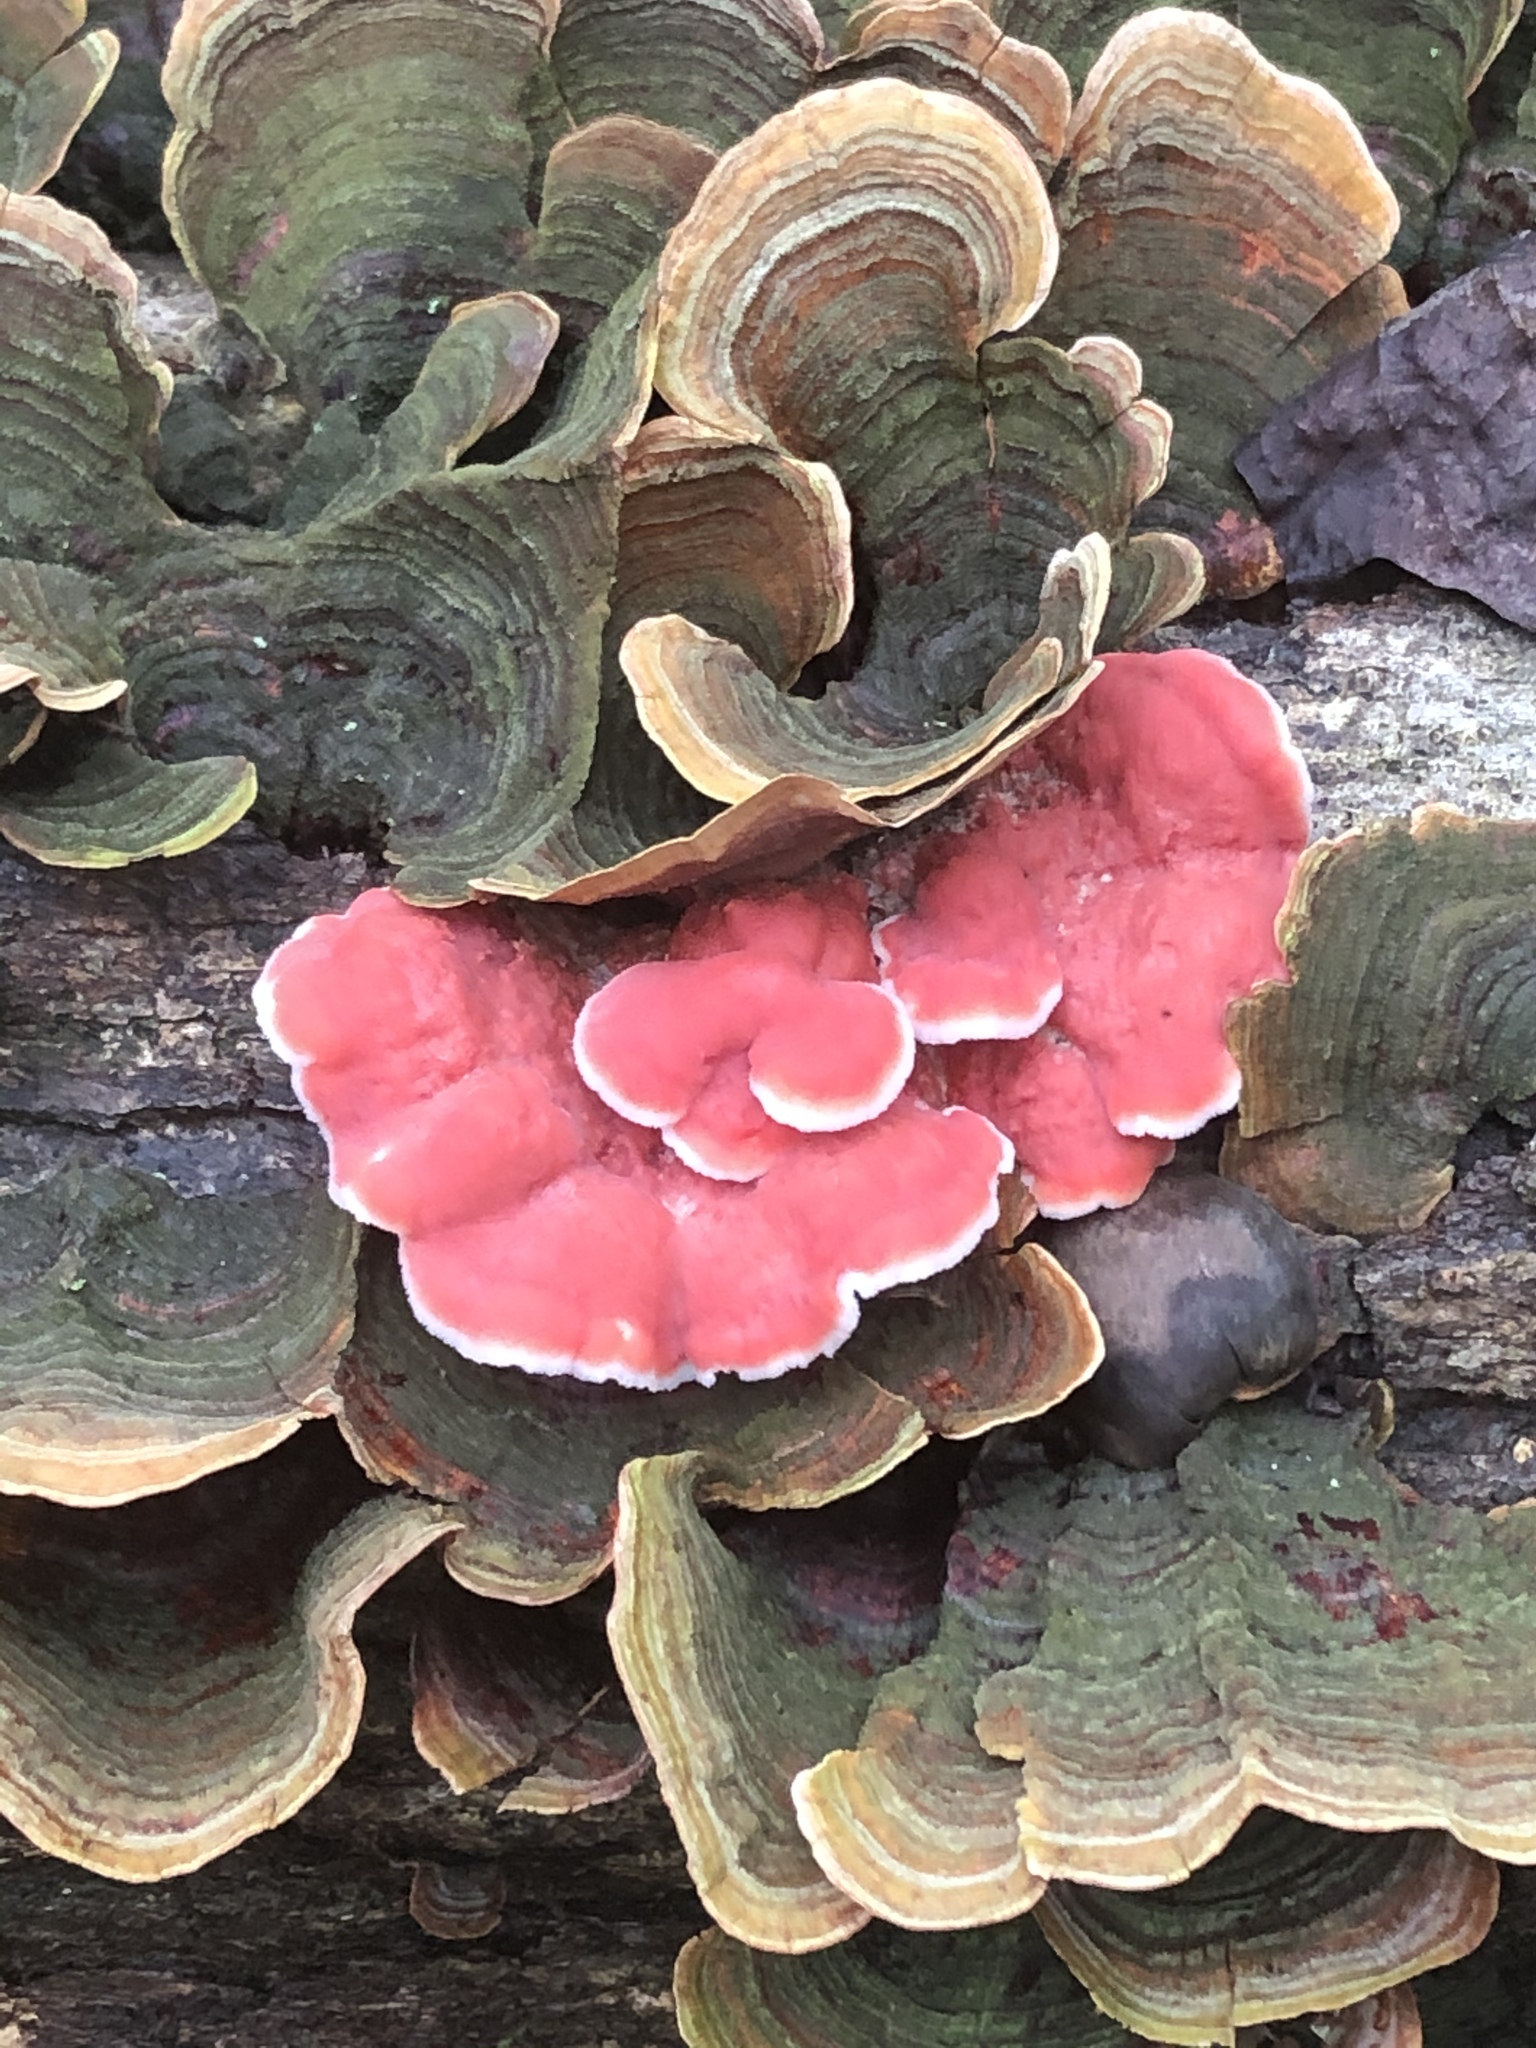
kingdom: Fungi
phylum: Basidiomycota
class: Agaricomycetes
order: Polyporales
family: Irpicaceae
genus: Byssomerulius
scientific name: Byssomerulius incarnatus
